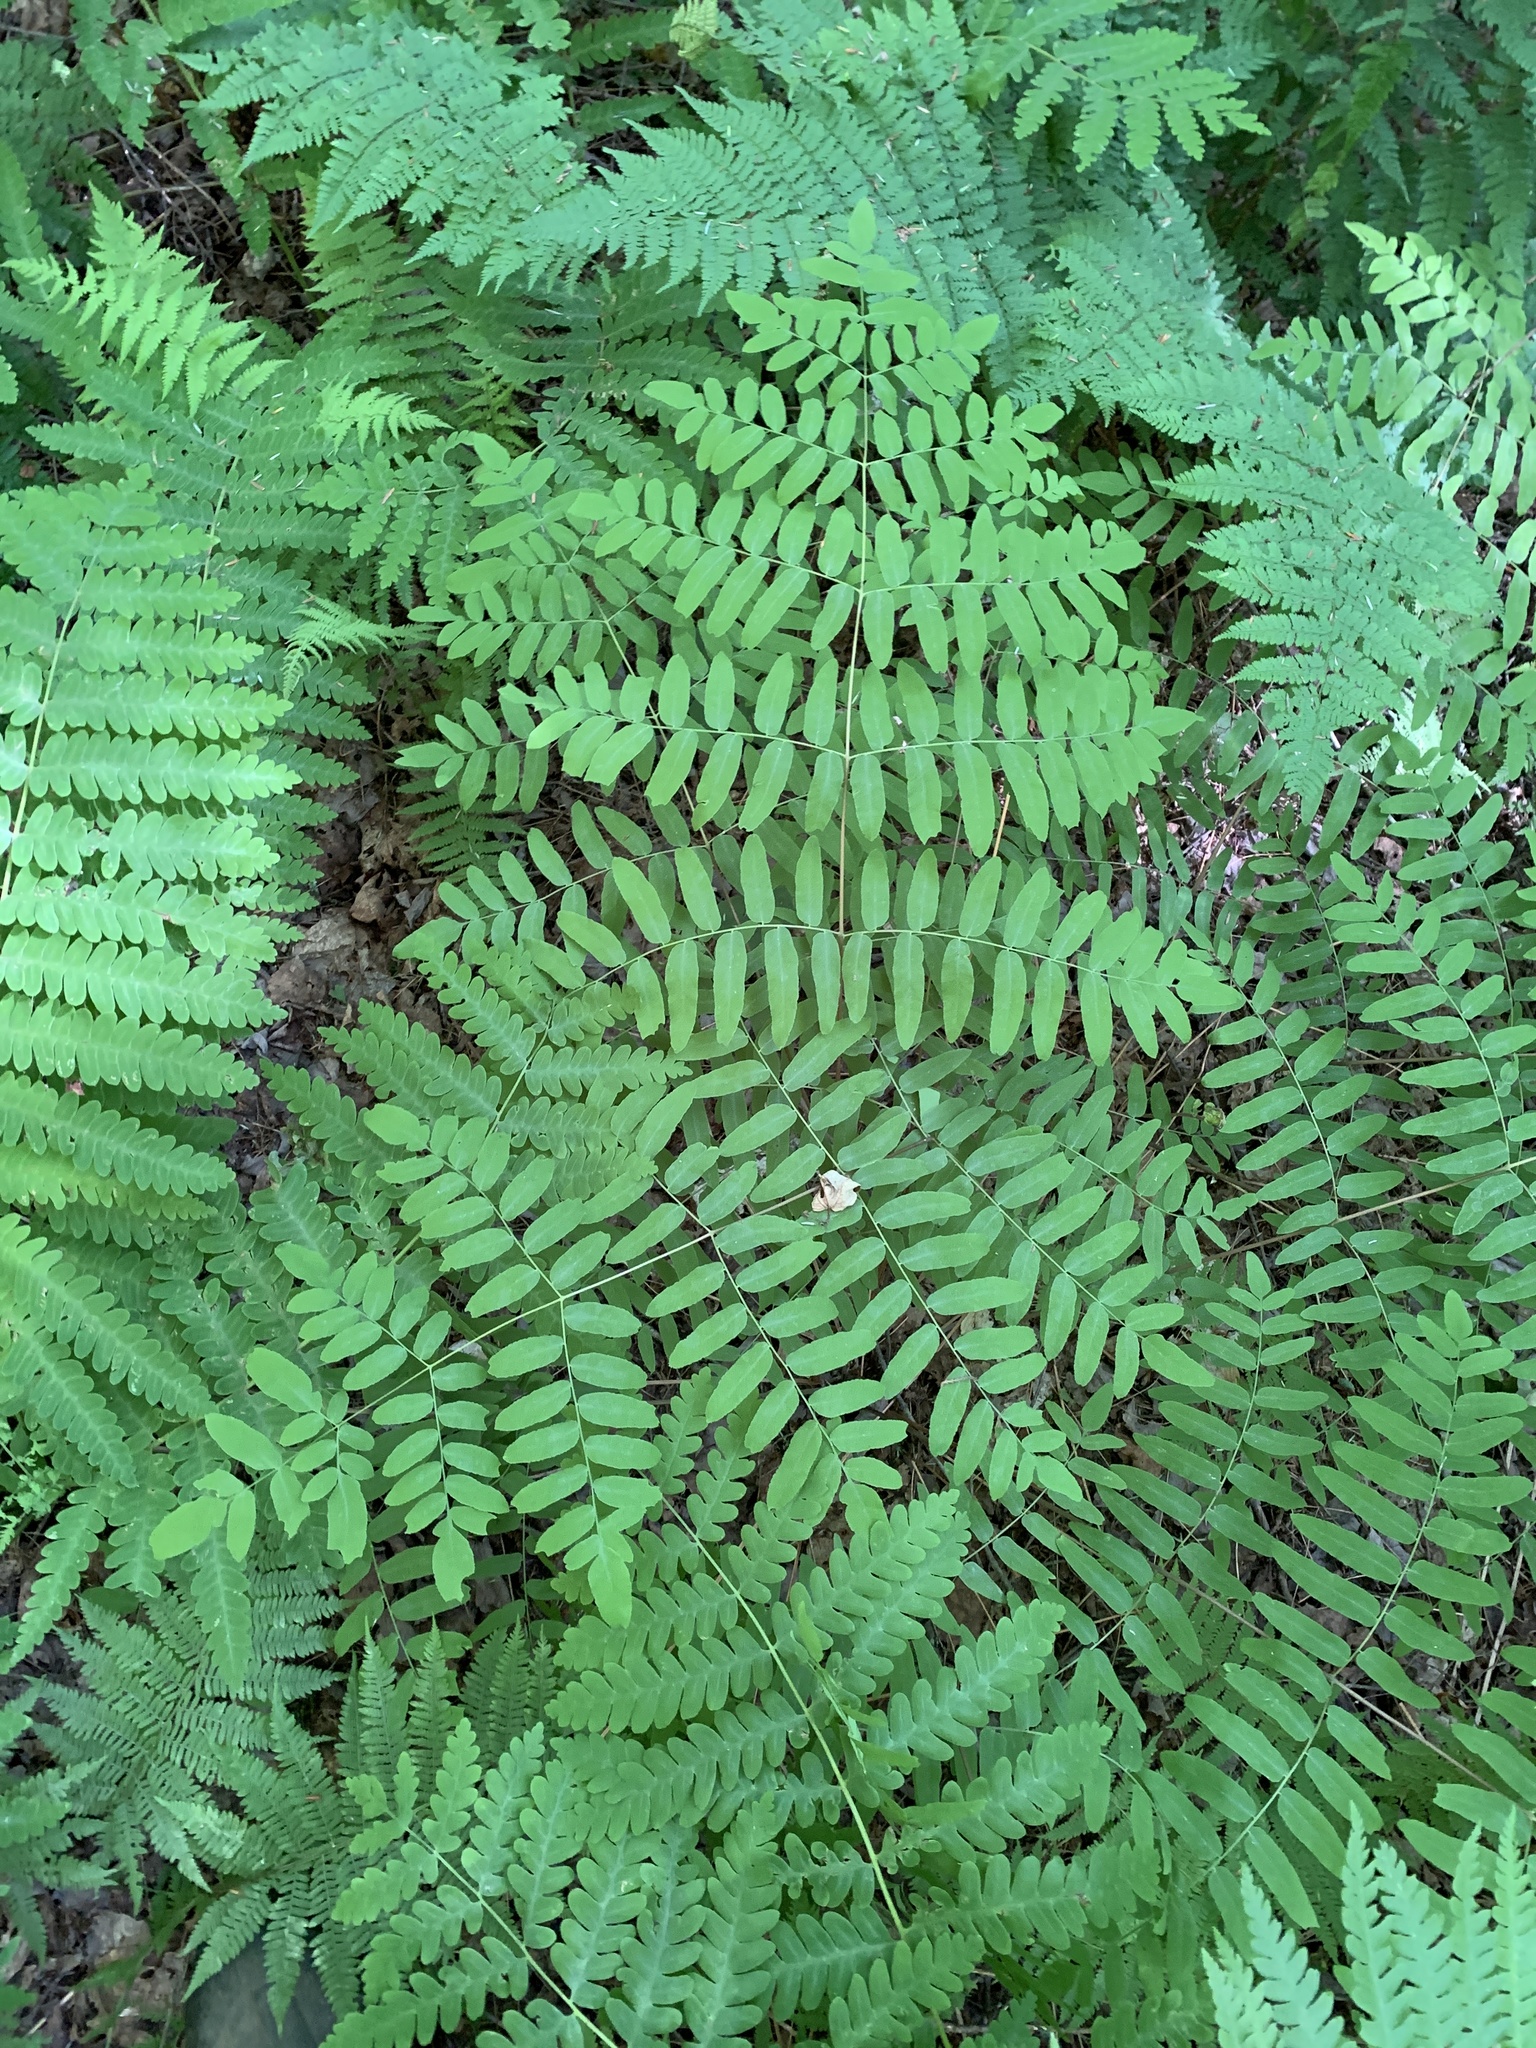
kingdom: Plantae
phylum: Tracheophyta
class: Polypodiopsida
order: Osmundales
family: Osmundaceae
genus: Osmunda
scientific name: Osmunda spectabilis
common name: American royal fern
